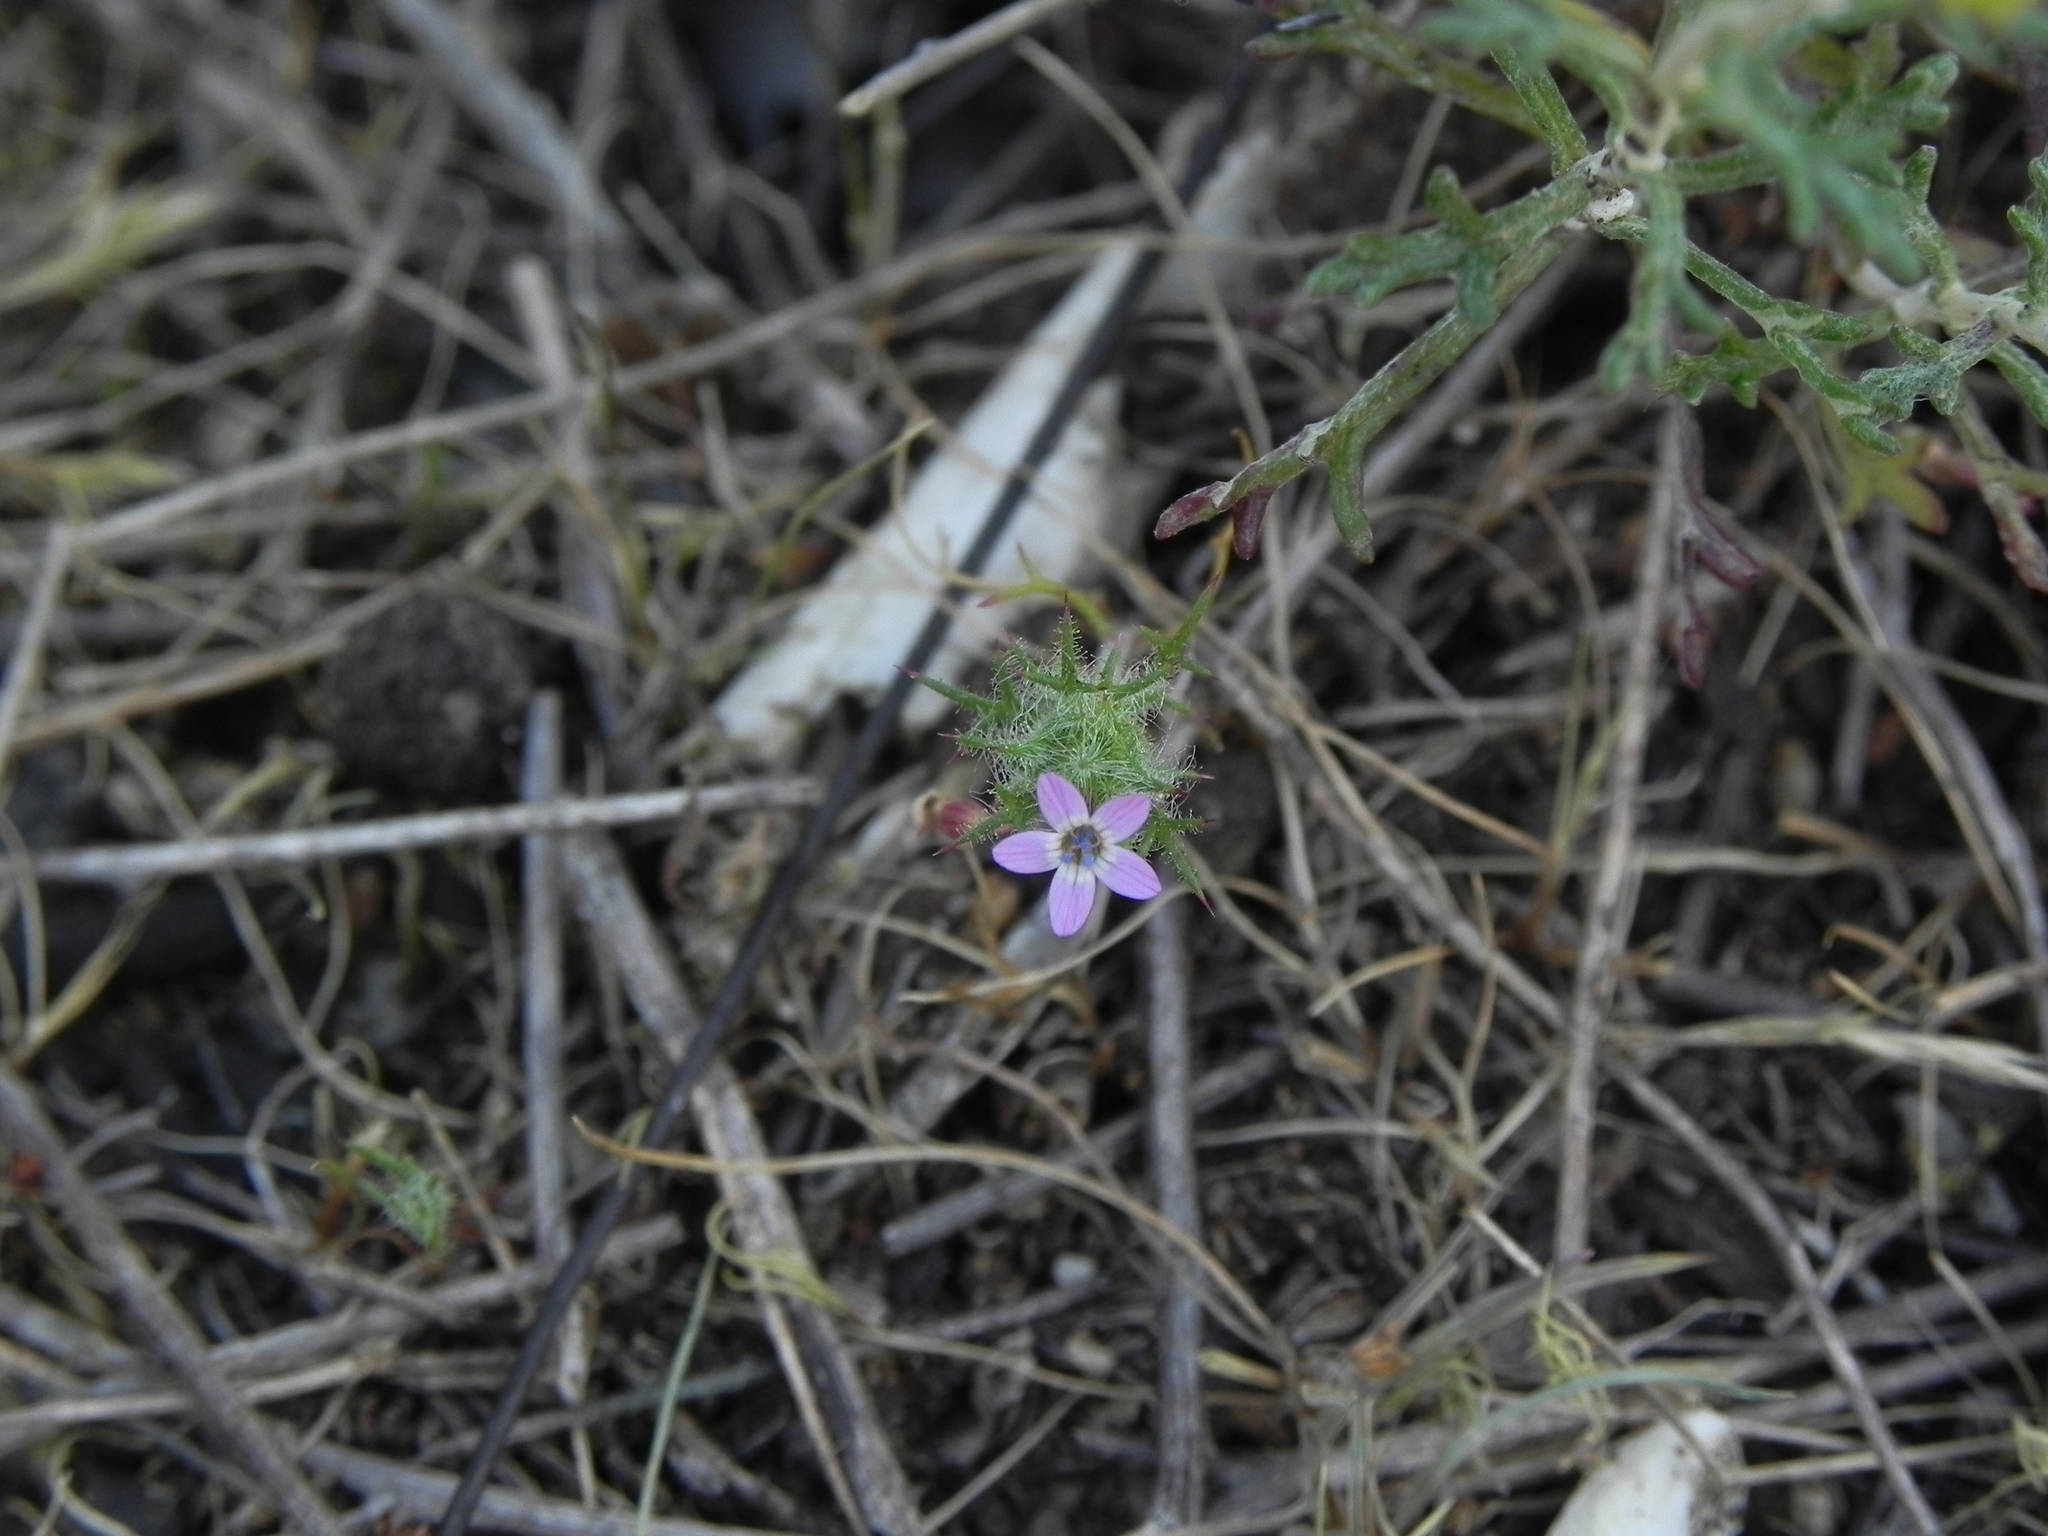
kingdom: Plantae
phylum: Tracheophyta
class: Magnoliopsida
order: Ericales
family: Polemoniaceae
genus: Navarretia
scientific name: Navarretia hamata
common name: Hooked navarretia
